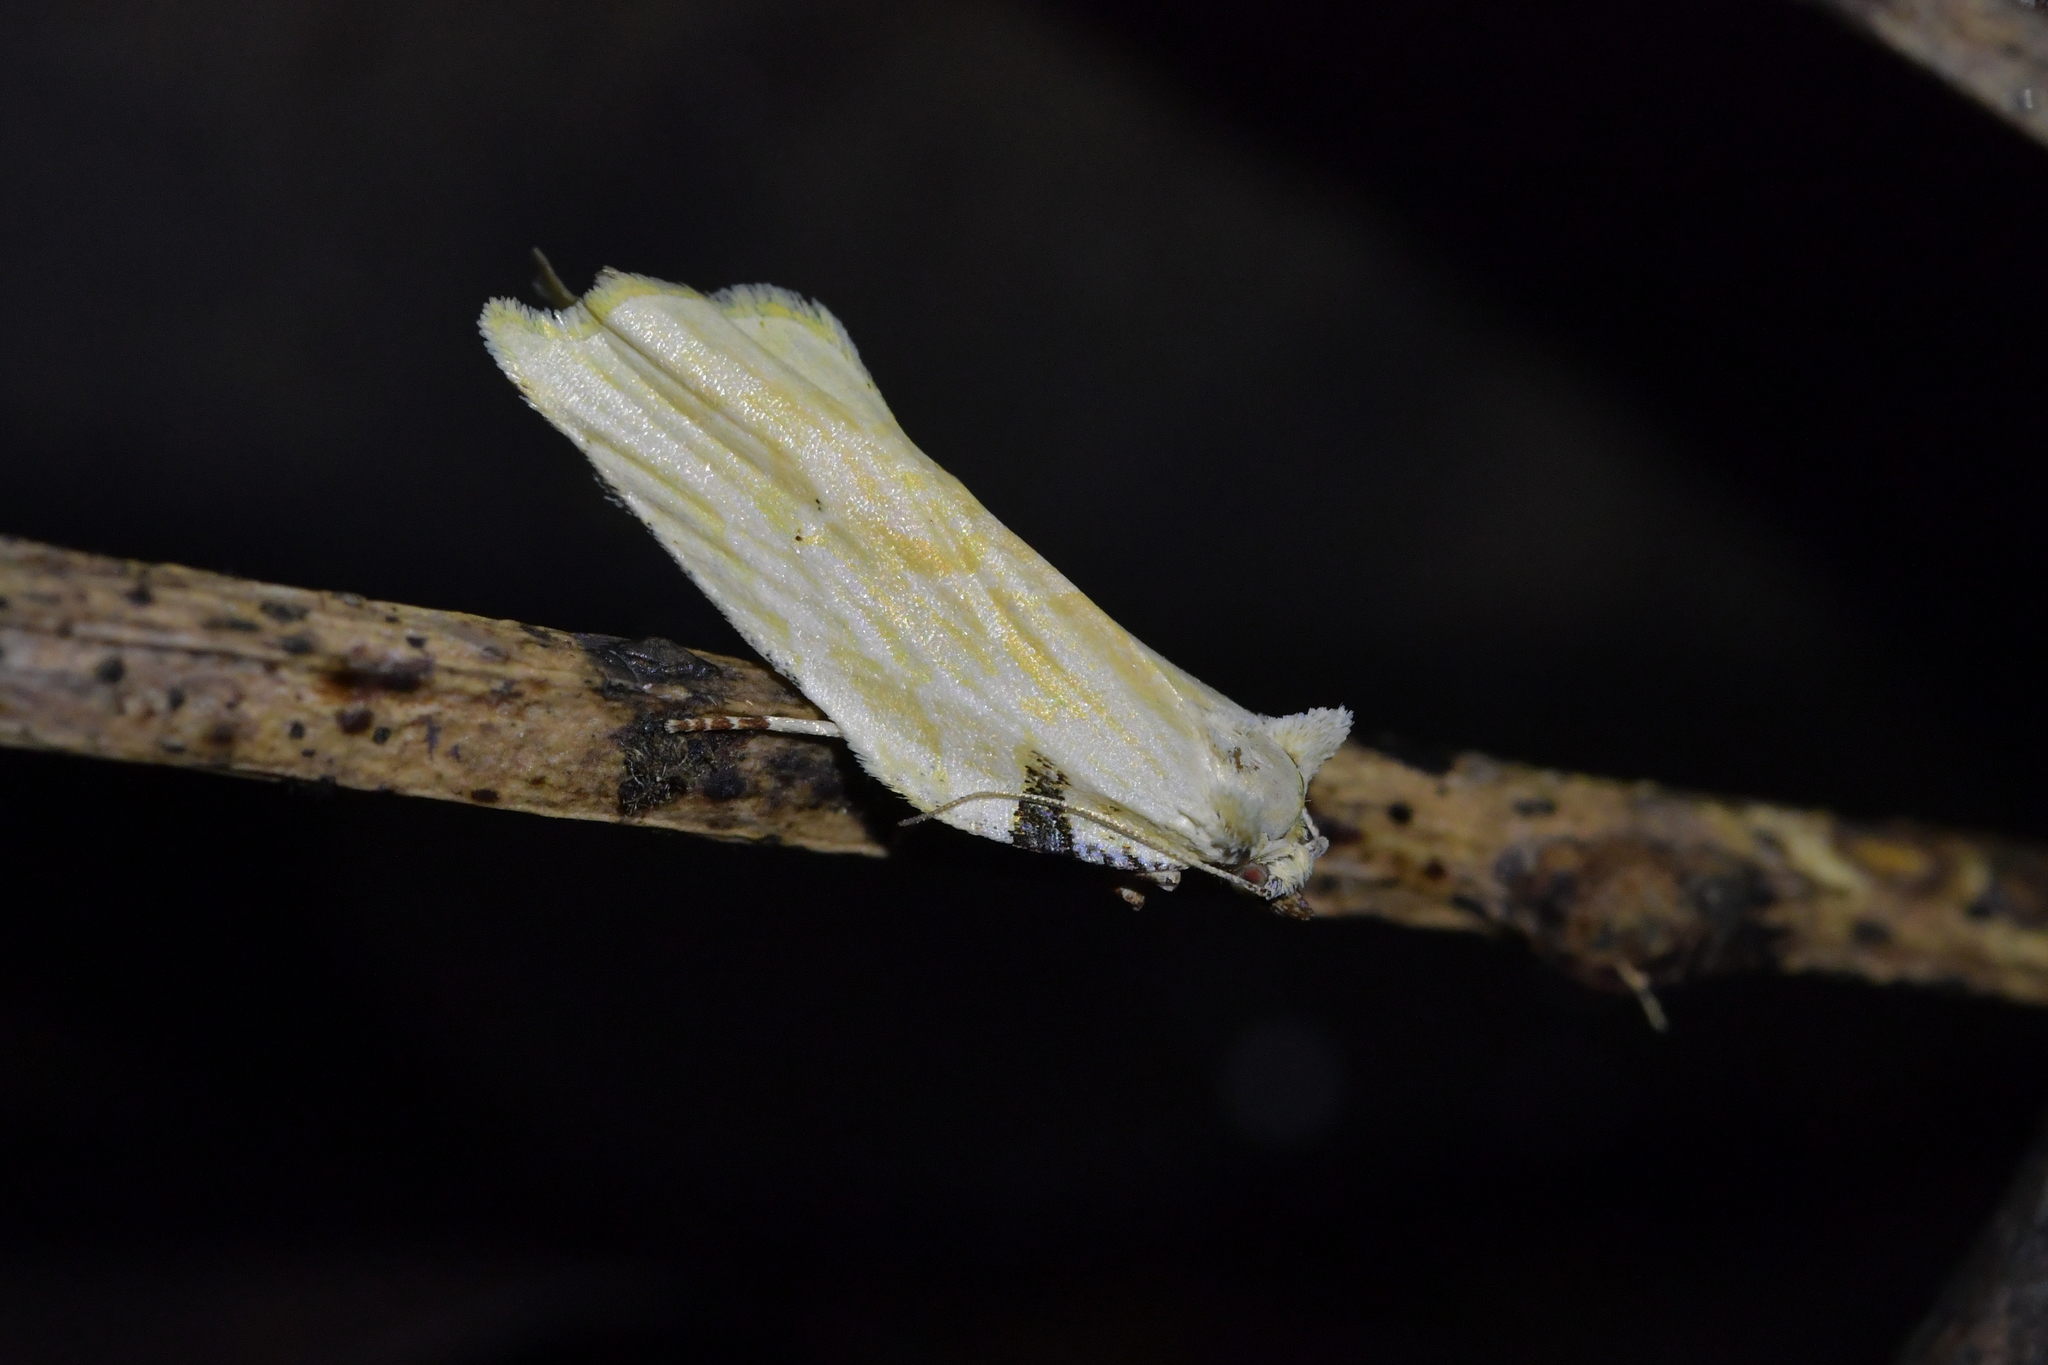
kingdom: Animalia
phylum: Arthropoda
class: Insecta
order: Lepidoptera
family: Tortricidae
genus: Epalxiphora
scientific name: Epalxiphora axenana
